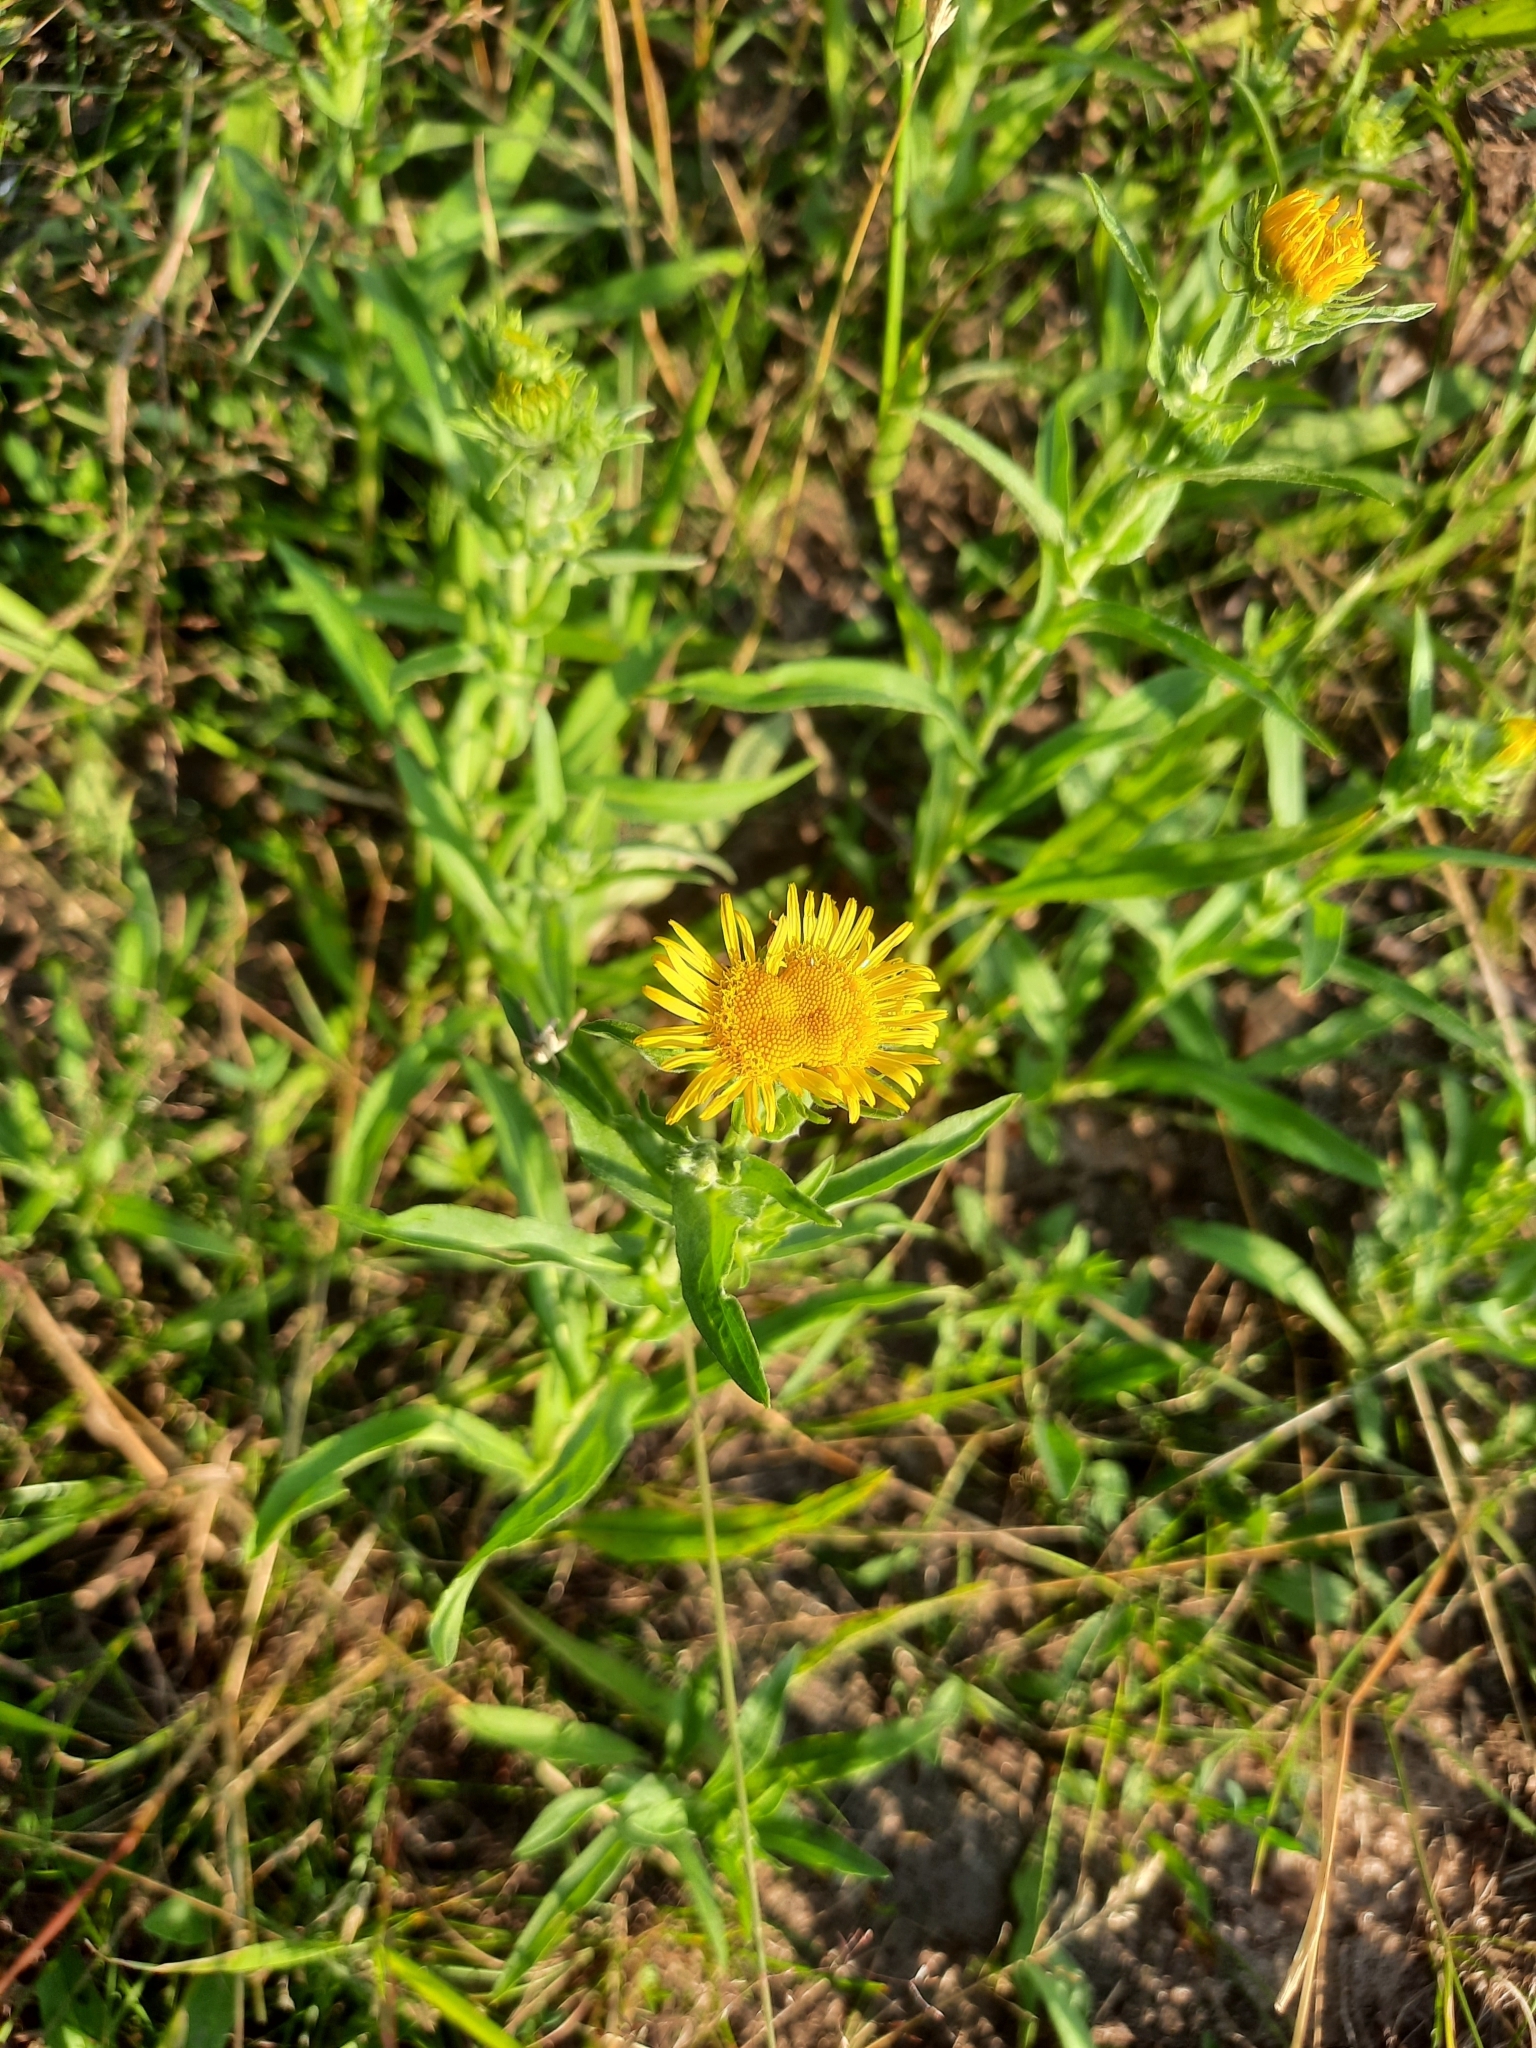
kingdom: Plantae
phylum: Tracheophyta
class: Magnoliopsida
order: Asterales
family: Asteraceae
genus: Pentanema
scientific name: Pentanema salicinum
